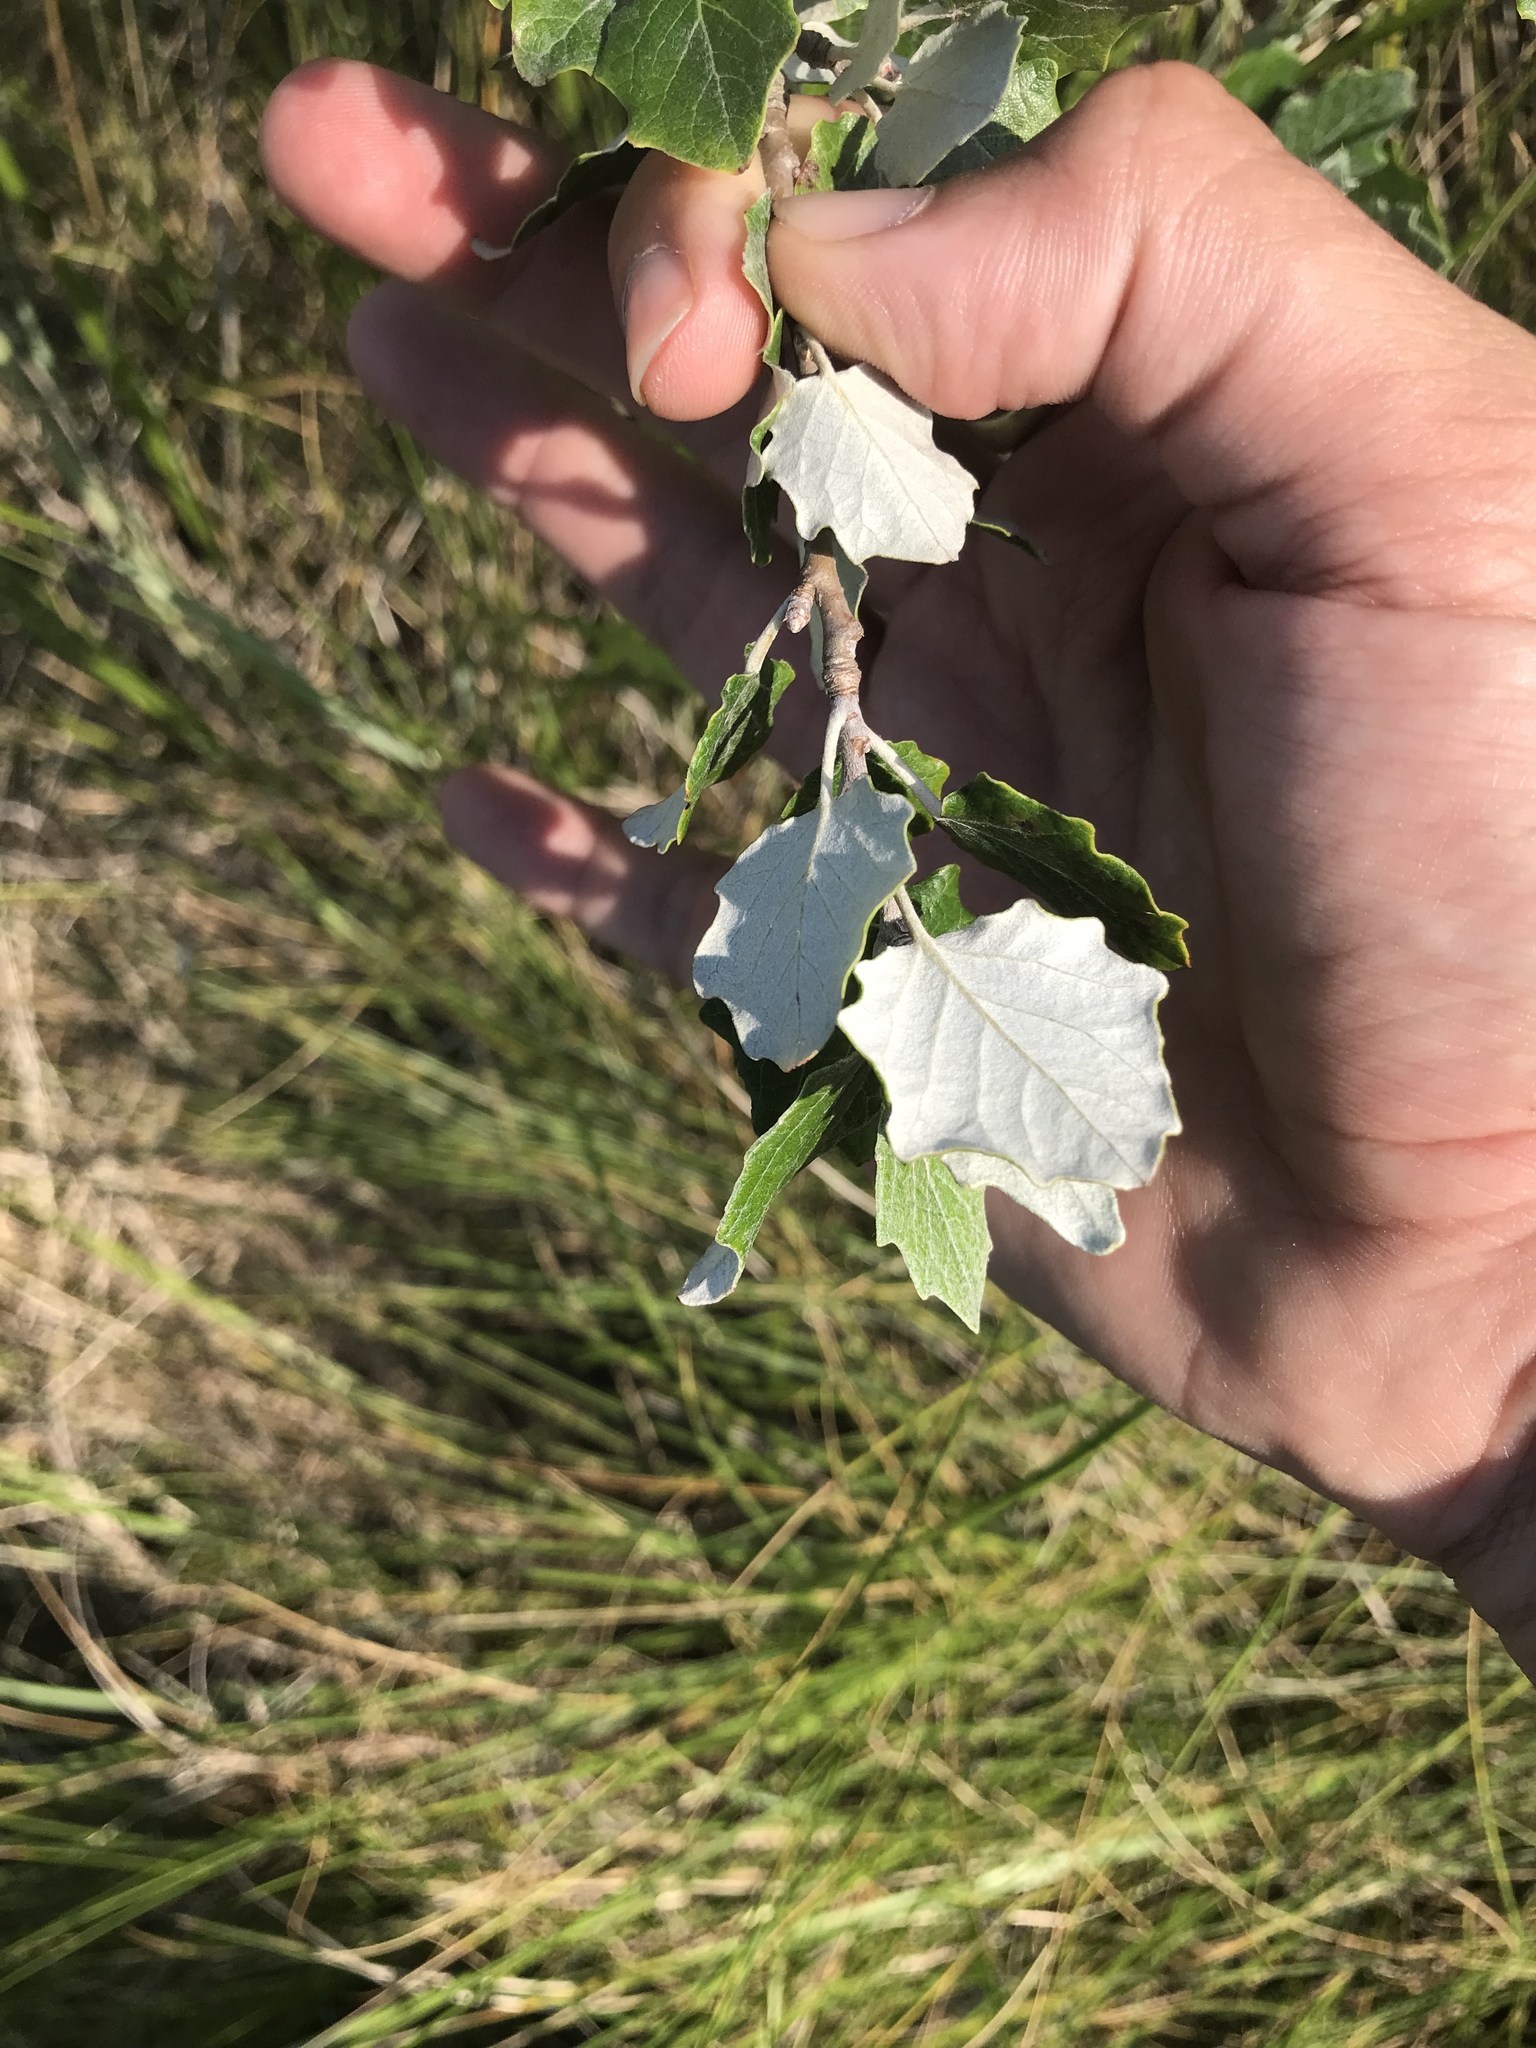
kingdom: Plantae
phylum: Tracheophyta
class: Magnoliopsida
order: Malpighiales
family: Salicaceae
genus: Populus
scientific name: Populus alba
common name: White poplar
